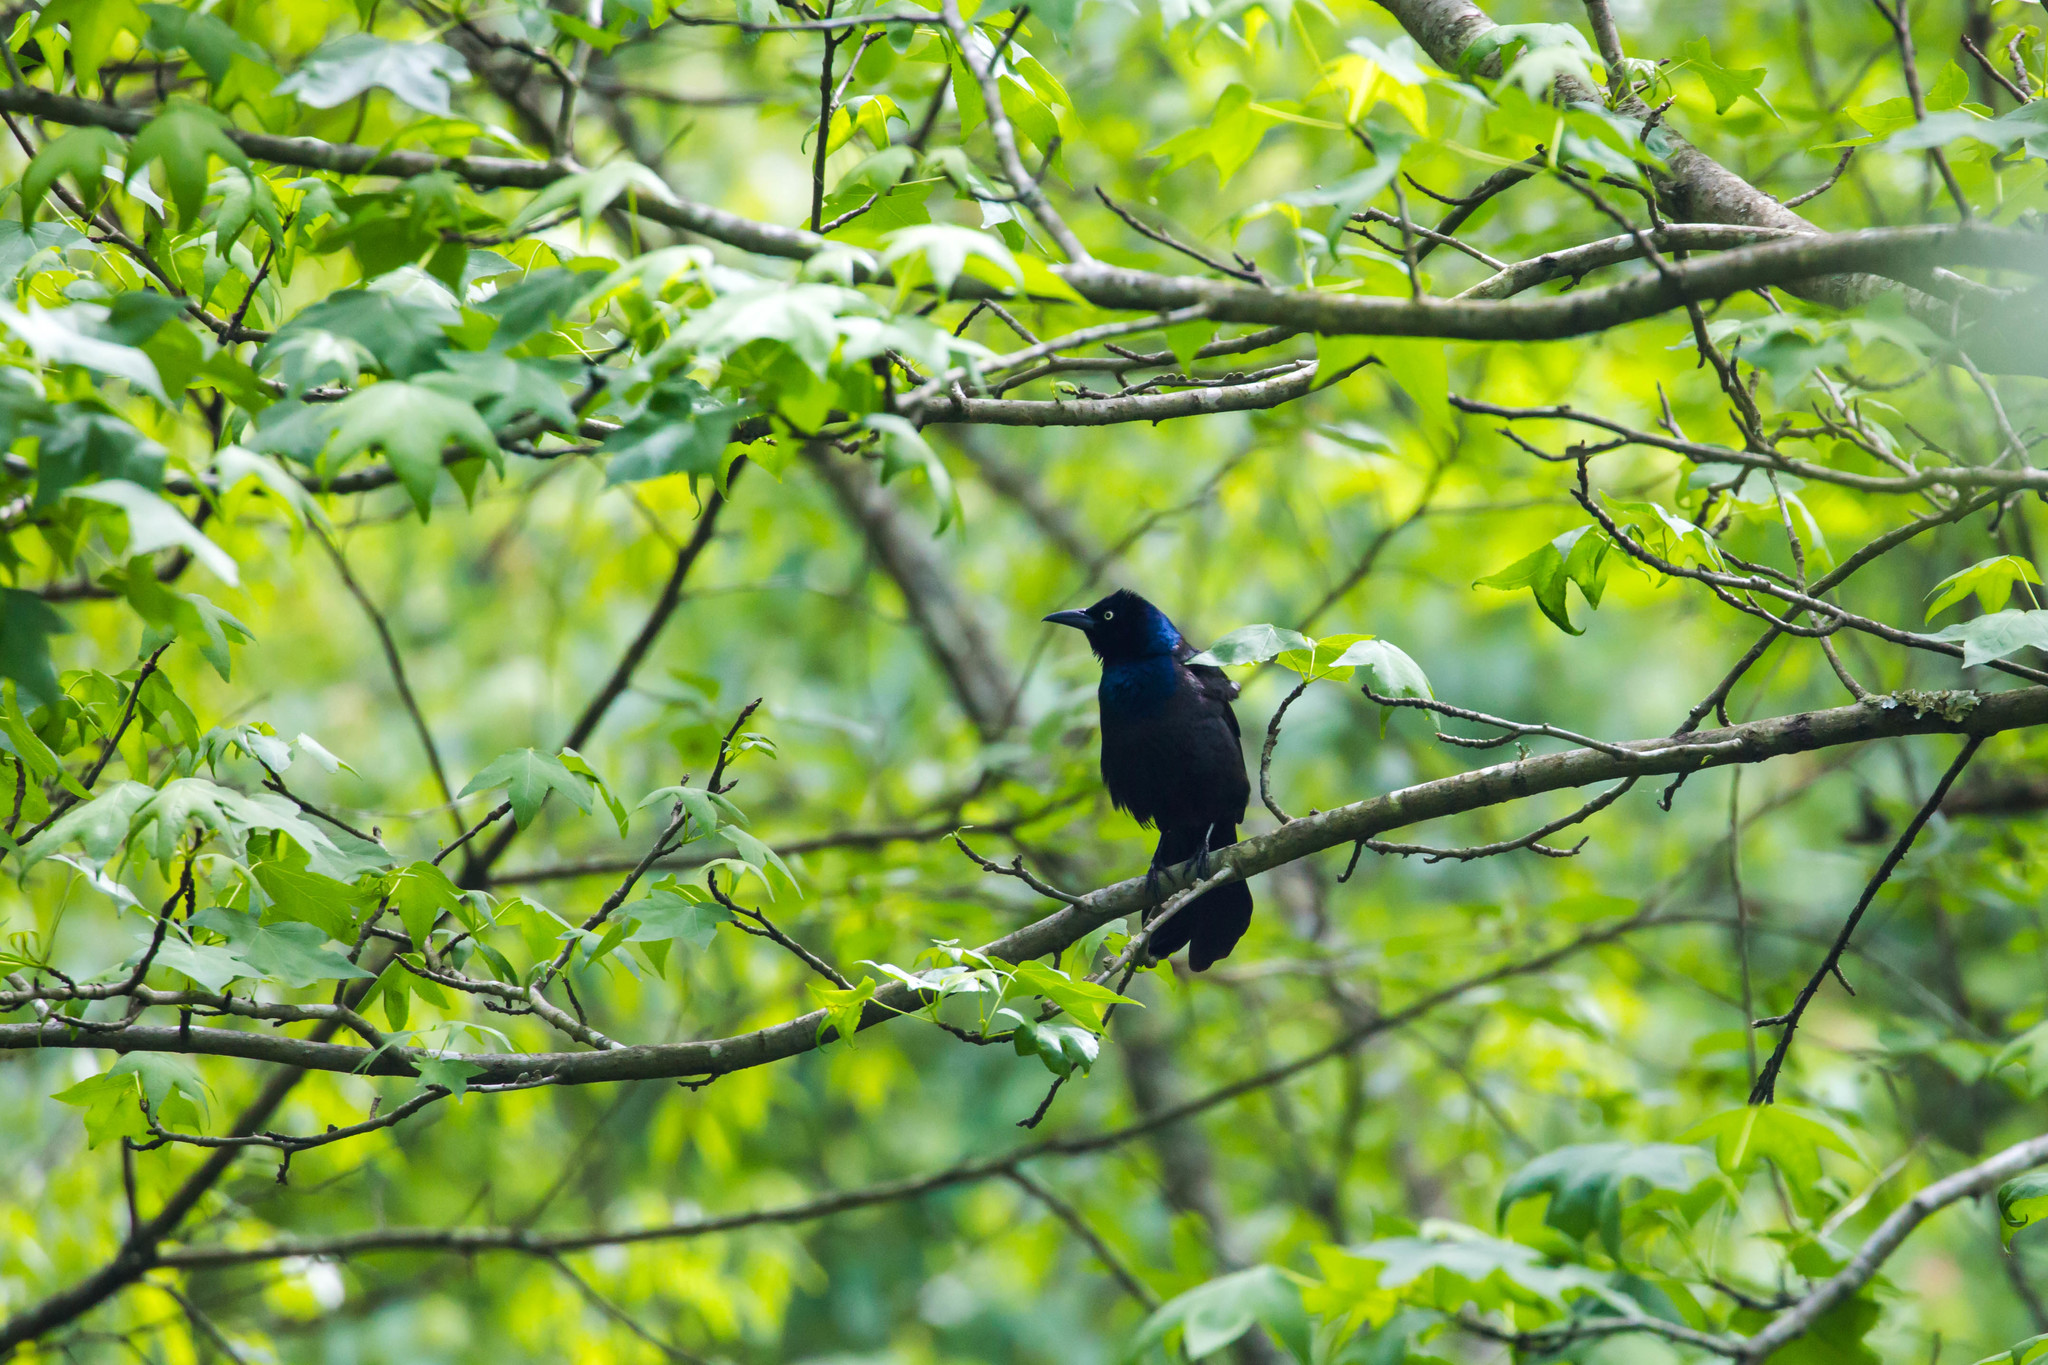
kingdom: Animalia
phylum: Chordata
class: Aves
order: Passeriformes
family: Icteridae
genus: Quiscalus
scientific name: Quiscalus quiscula
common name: Common grackle
